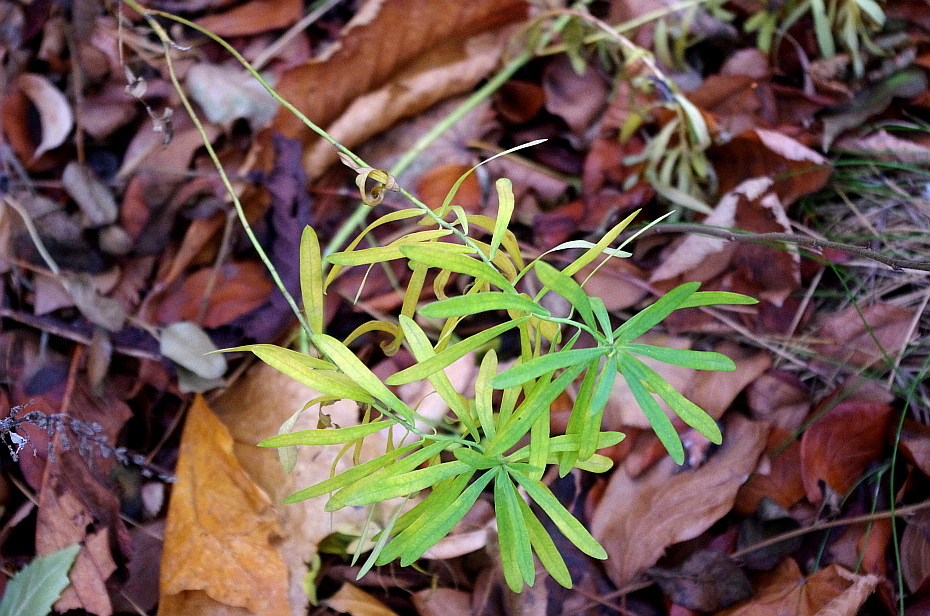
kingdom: Plantae
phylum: Tracheophyta
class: Magnoliopsida
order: Lamiales
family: Plantaginaceae
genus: Linaria
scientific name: Linaria vulgaris
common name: Butter and eggs
